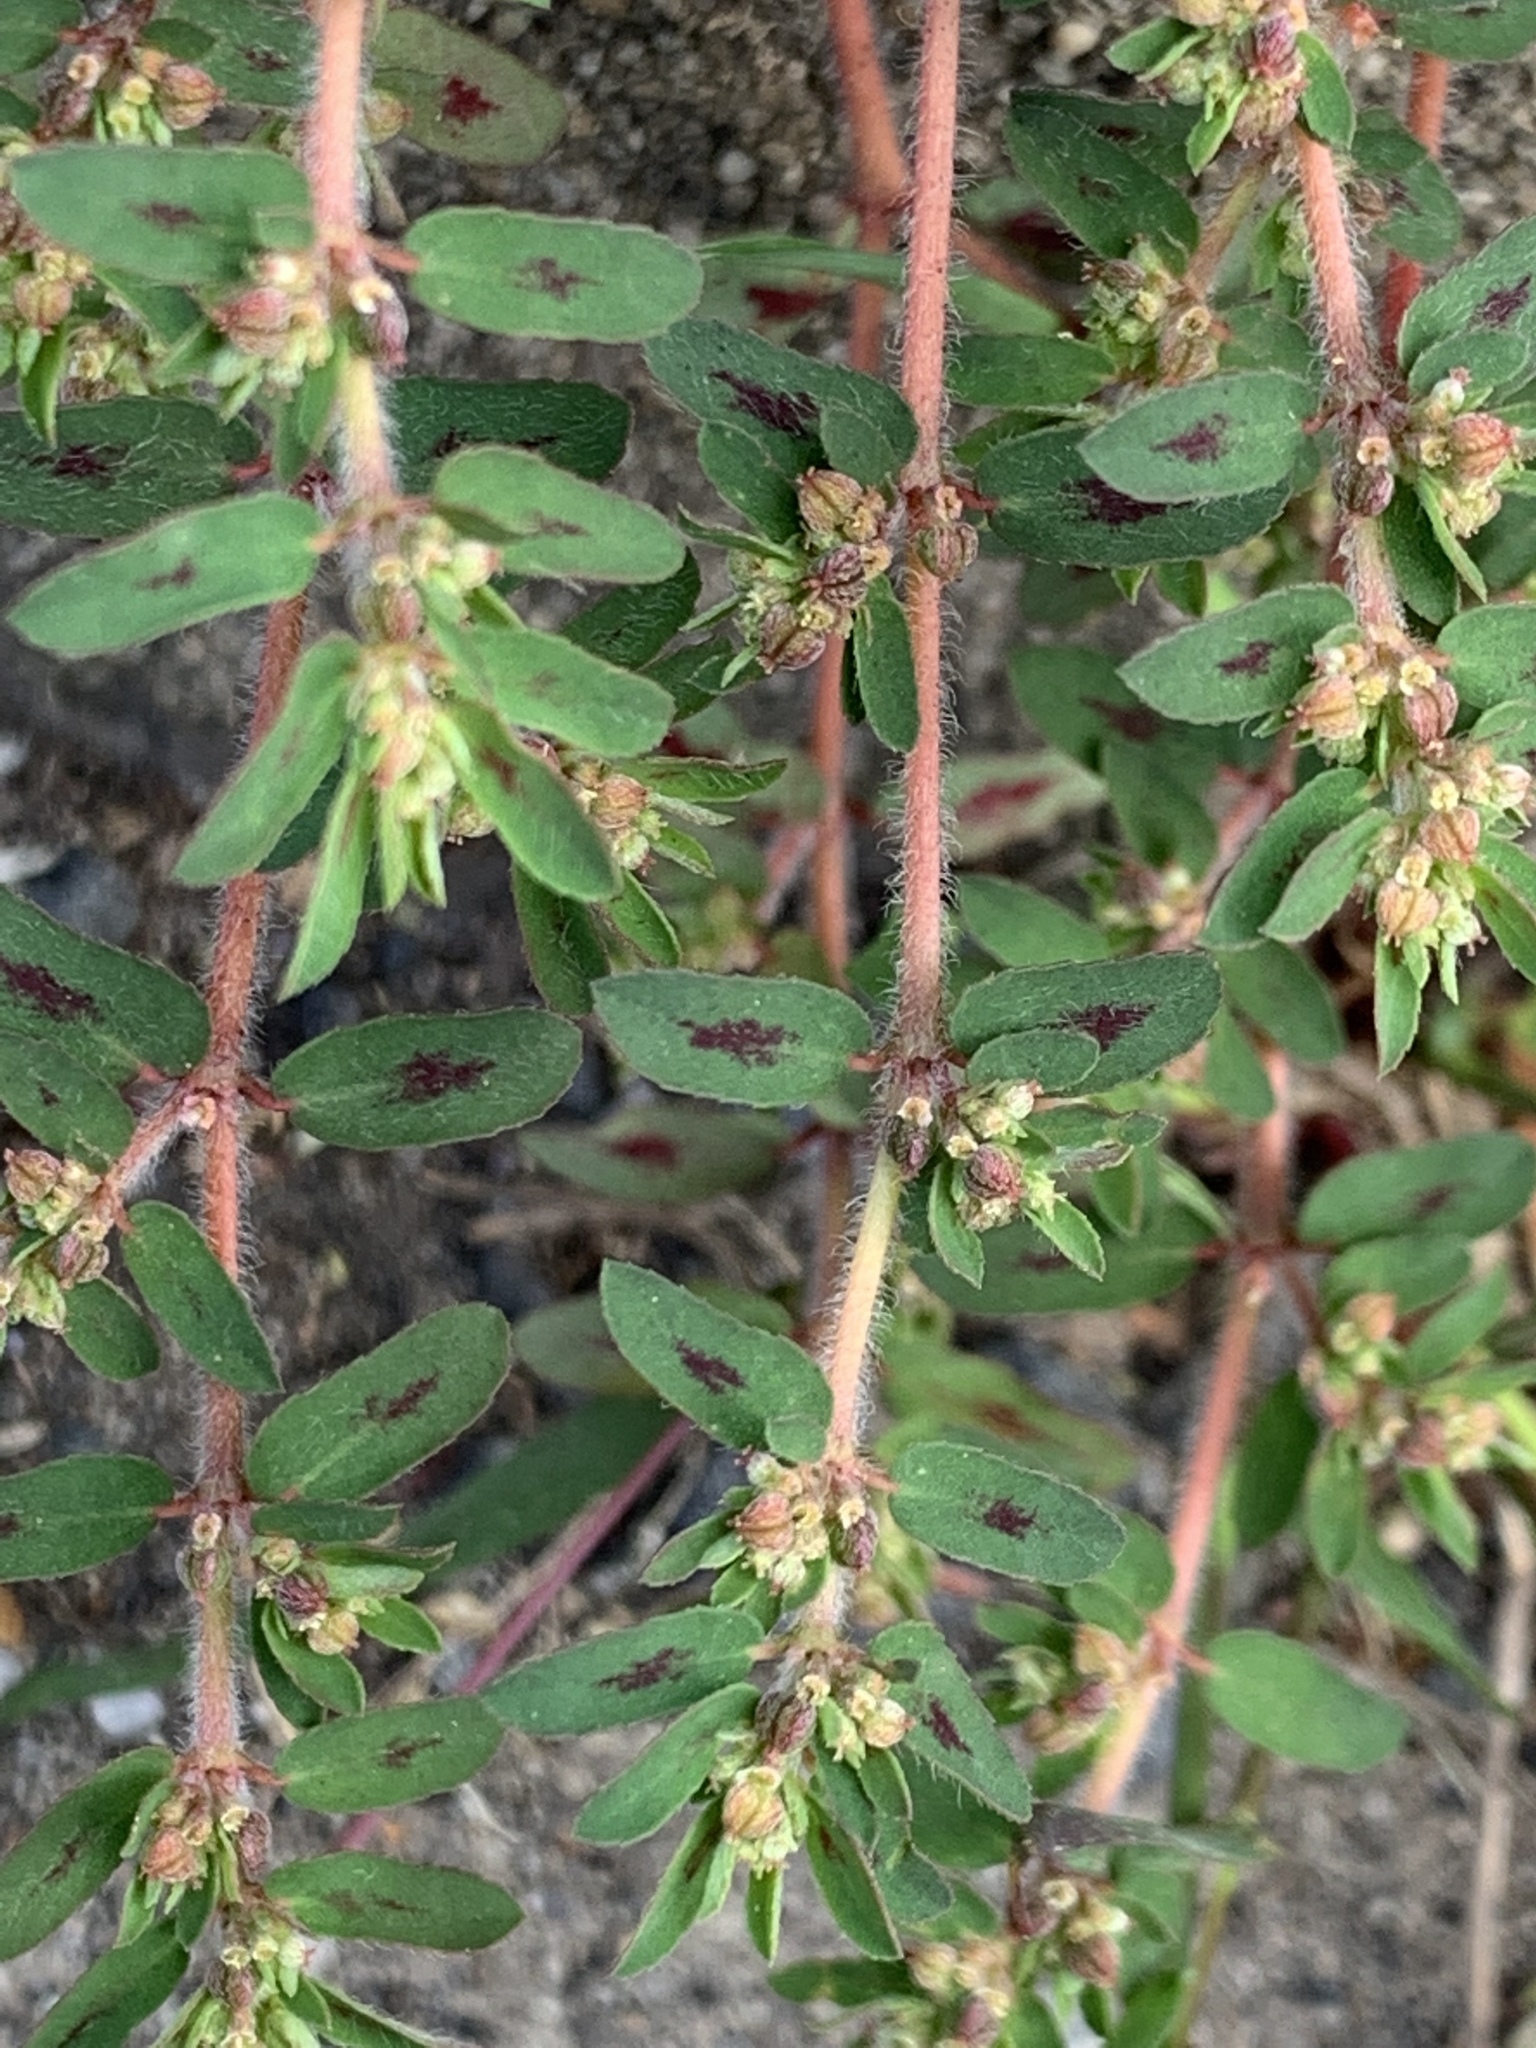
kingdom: Plantae
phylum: Tracheophyta
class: Magnoliopsida
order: Malpighiales
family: Euphorbiaceae
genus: Euphorbia
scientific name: Euphorbia maculata
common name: Spotted spurge
